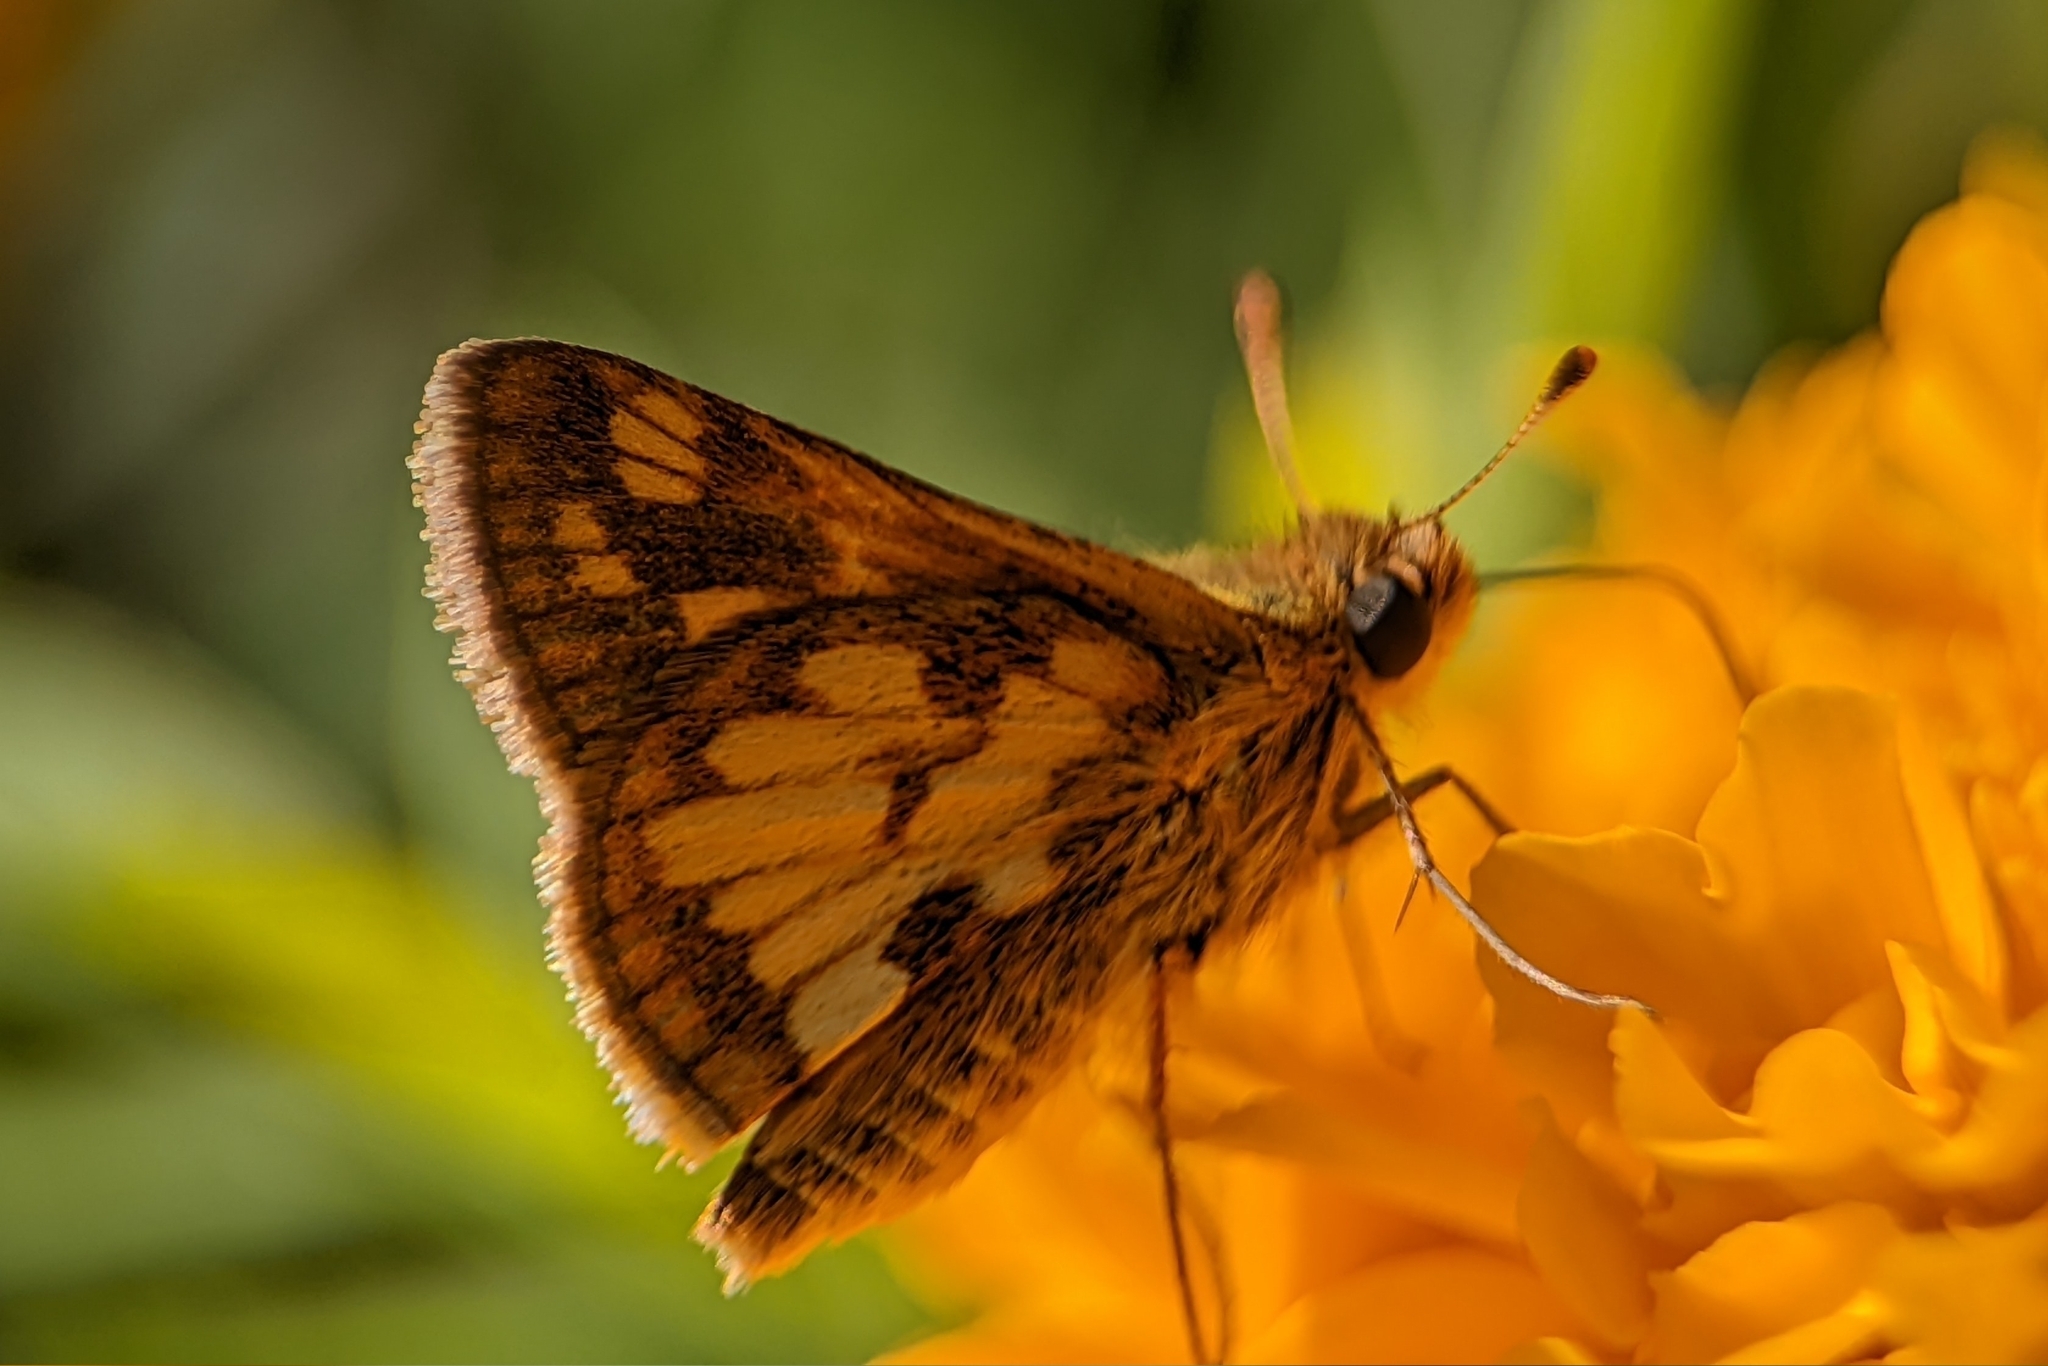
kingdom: Animalia
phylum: Arthropoda
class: Insecta
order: Lepidoptera
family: Hesperiidae
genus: Polites
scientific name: Polites coras
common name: Peck's skipper
